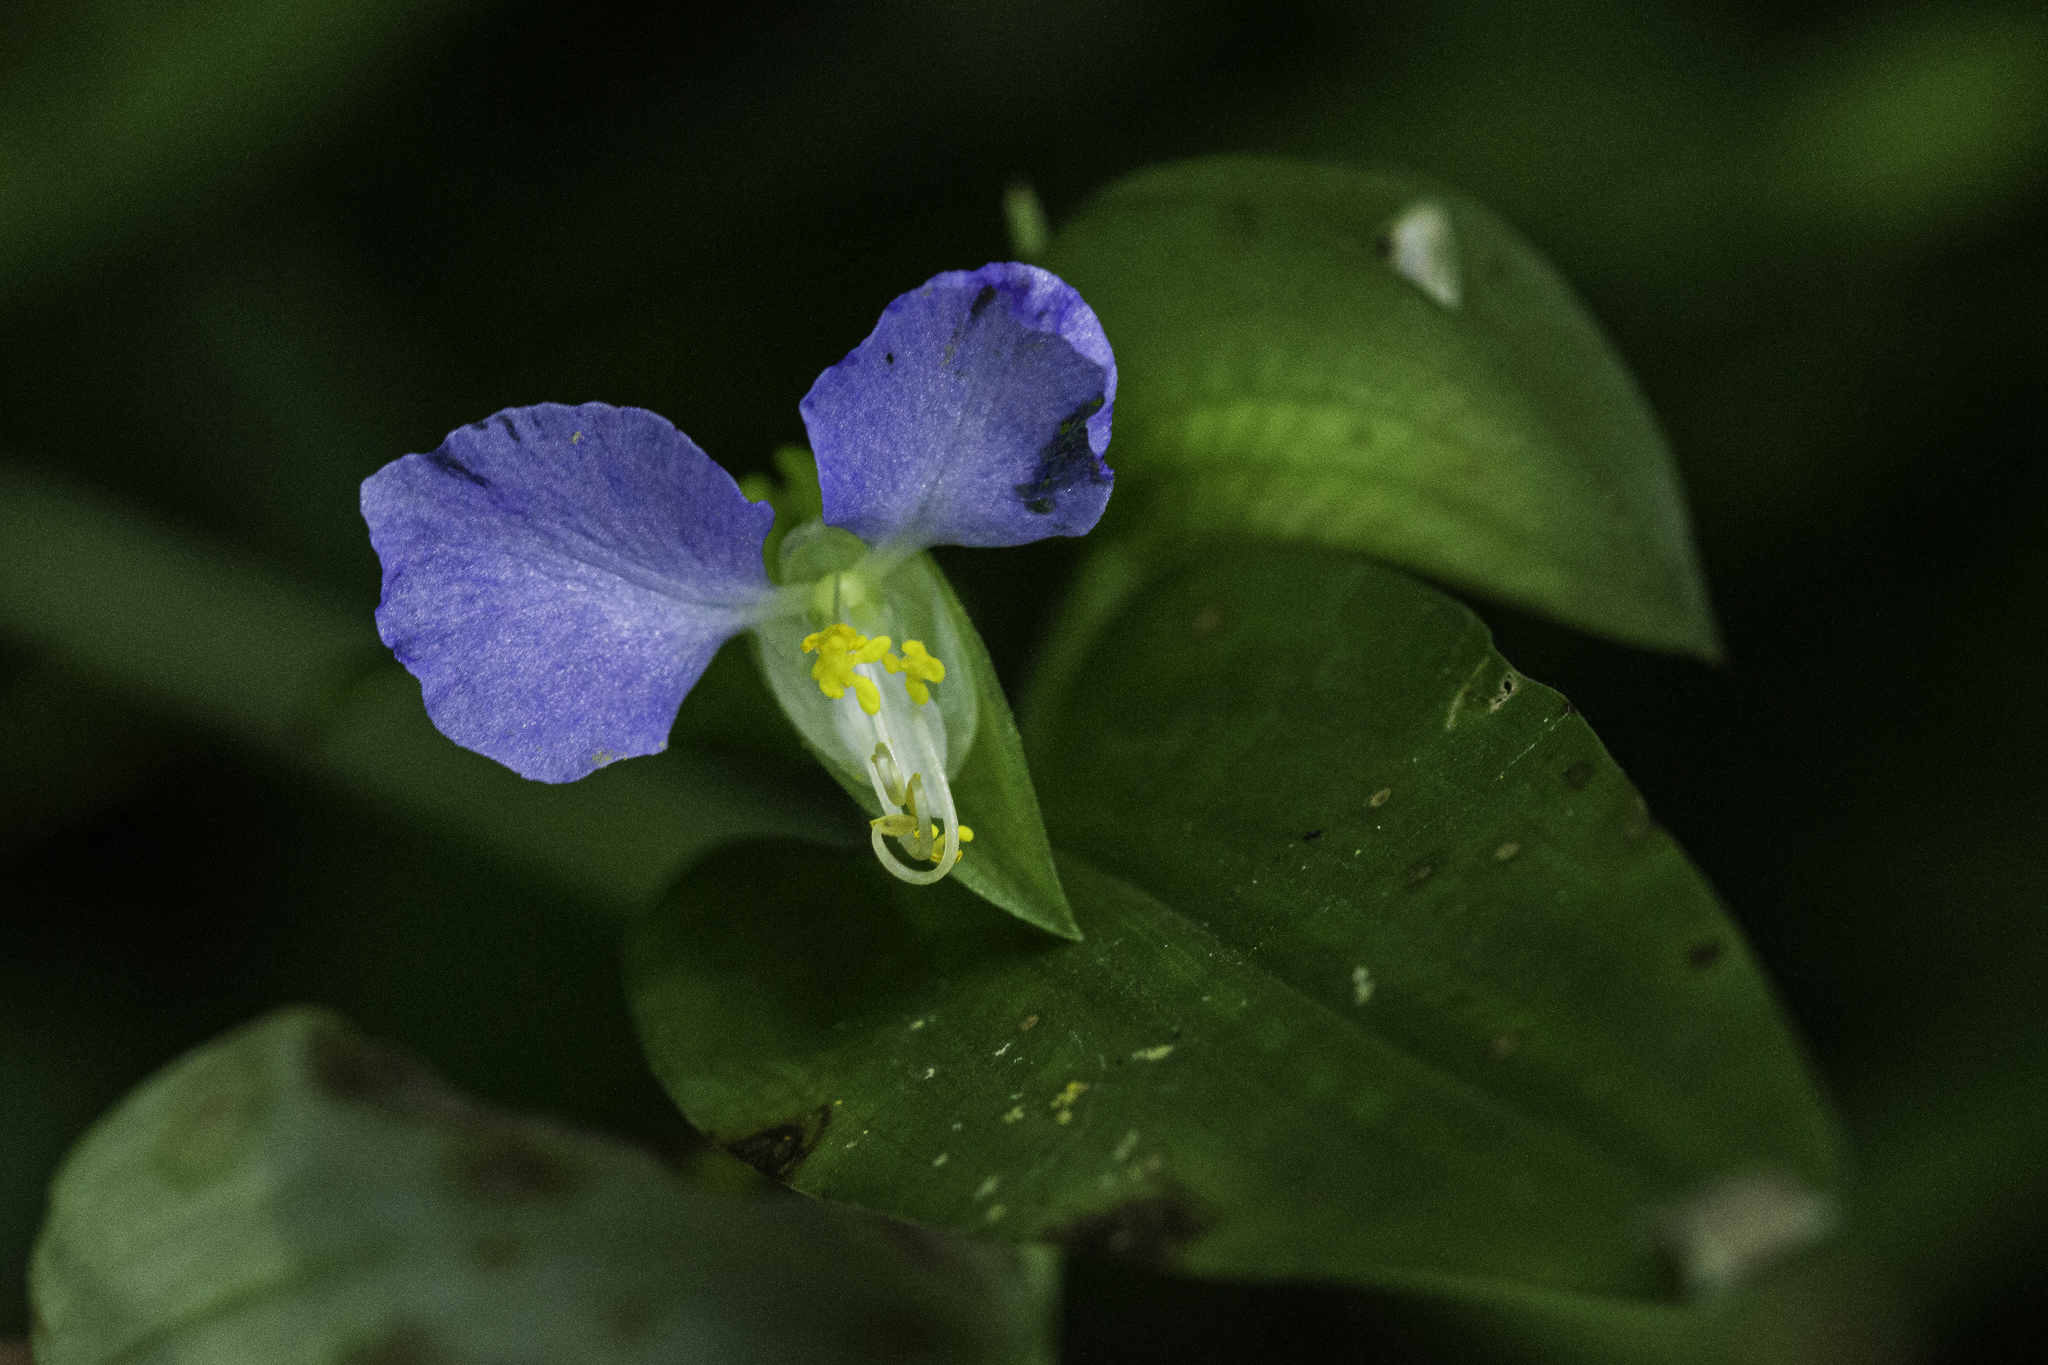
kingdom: Plantae
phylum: Tracheophyta
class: Liliopsida
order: Commelinales
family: Commelinaceae
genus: Commelina
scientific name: Commelina communis
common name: Asiatic dayflower
